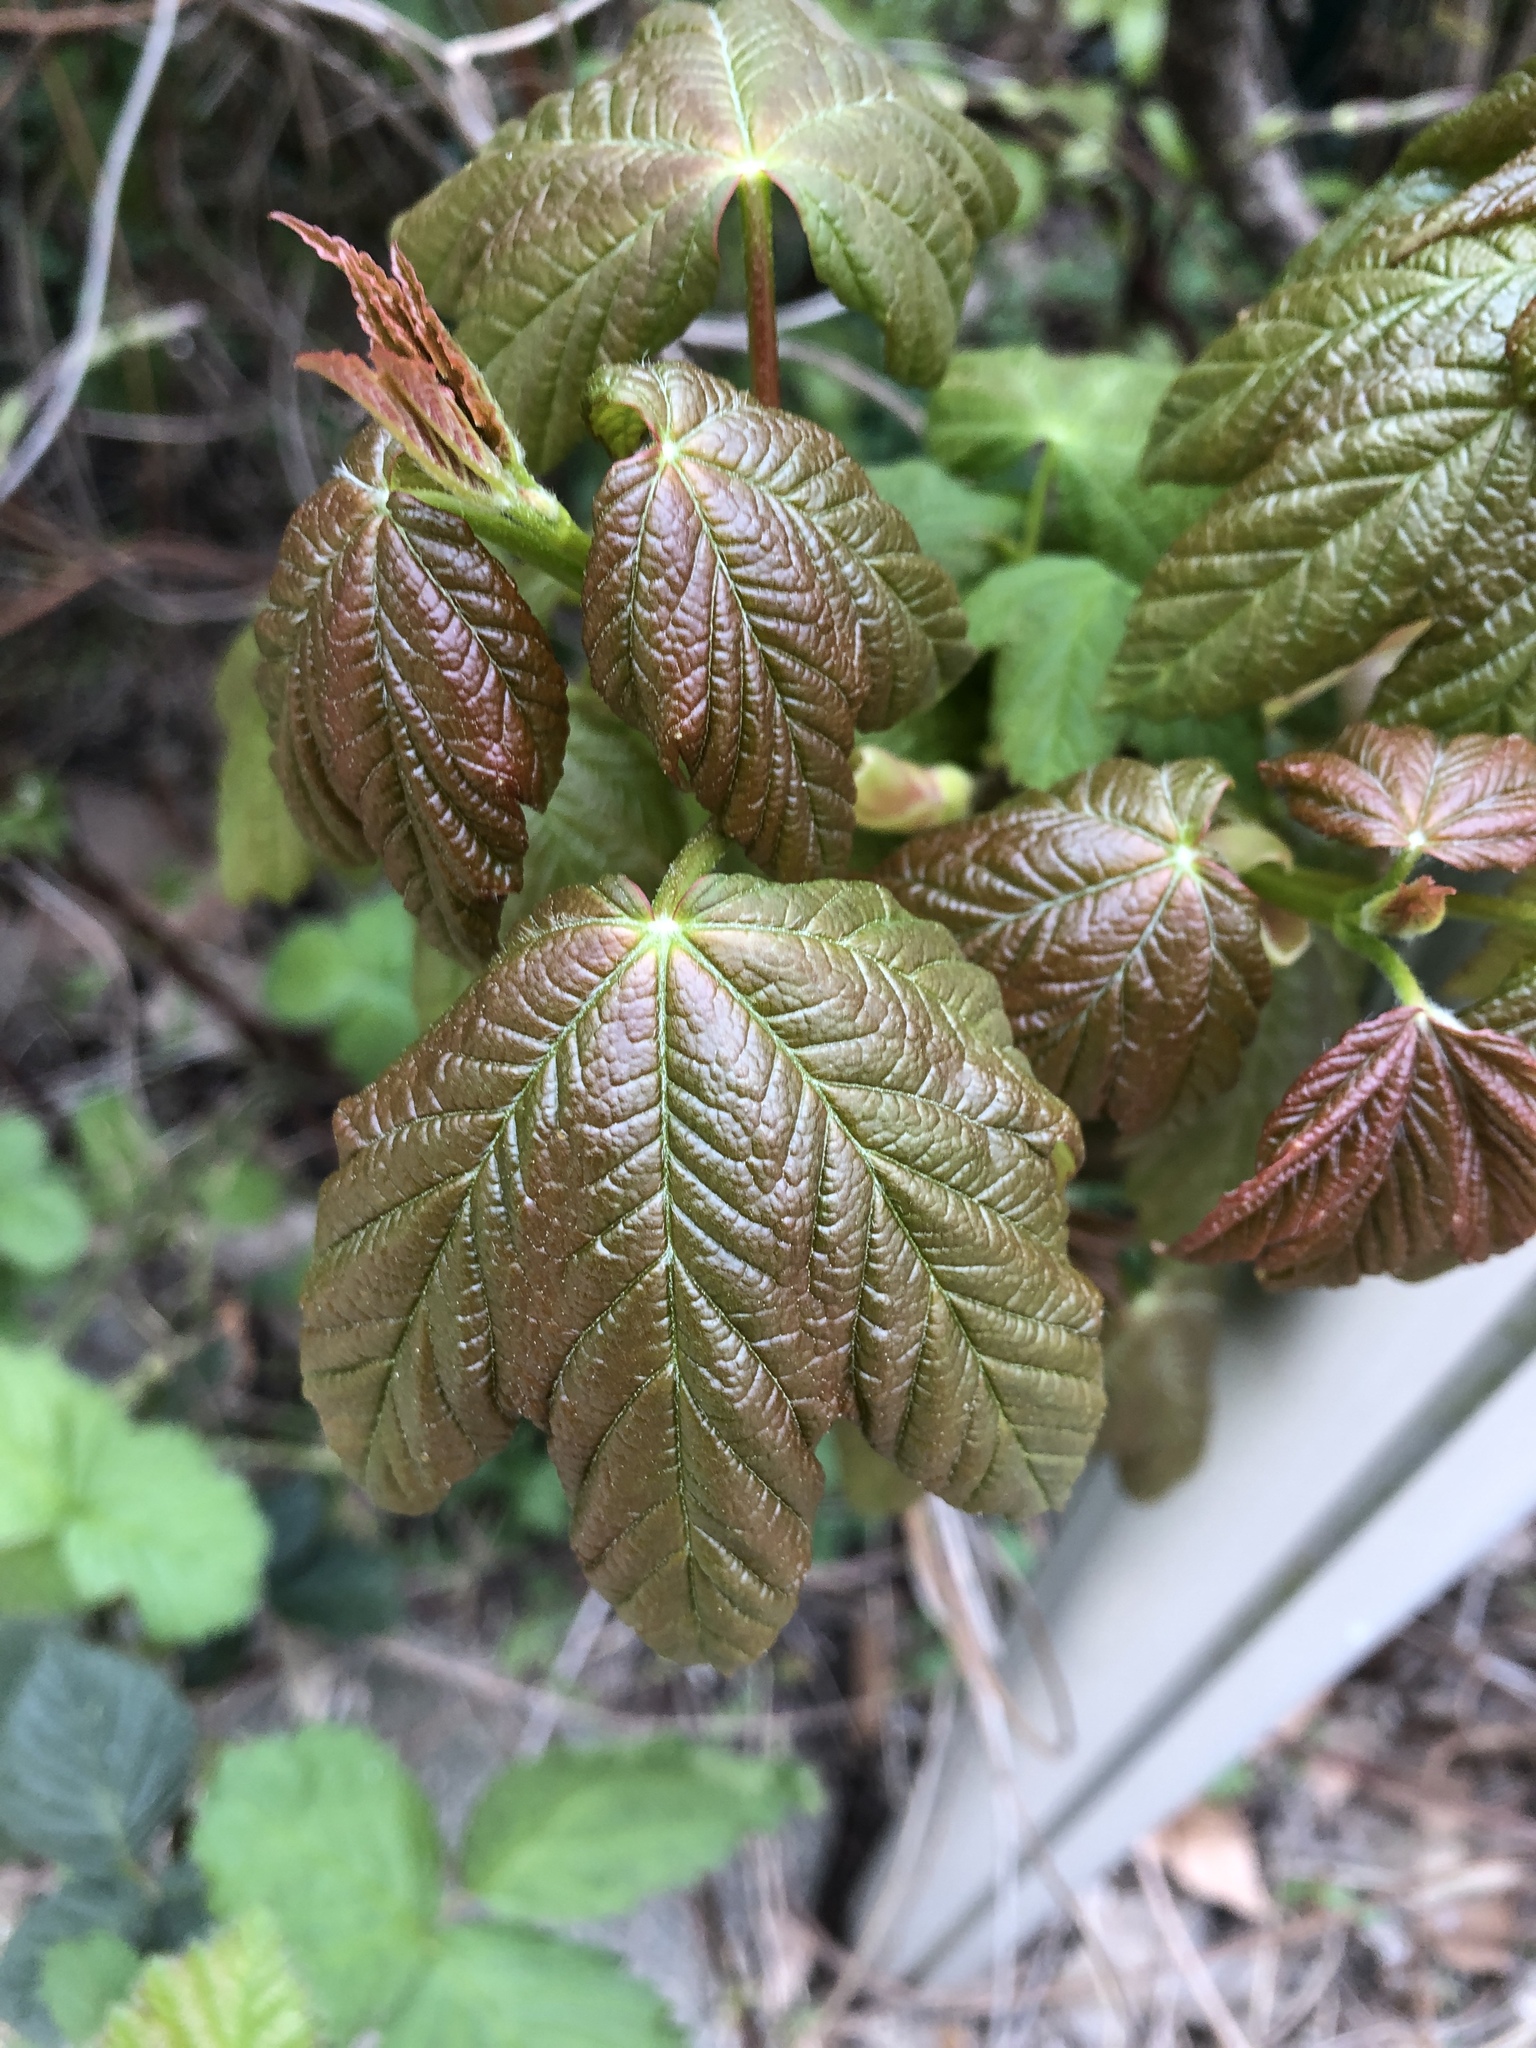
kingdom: Plantae
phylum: Tracheophyta
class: Magnoliopsida
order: Sapindales
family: Sapindaceae
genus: Acer
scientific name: Acer pseudoplatanus
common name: Sycamore
